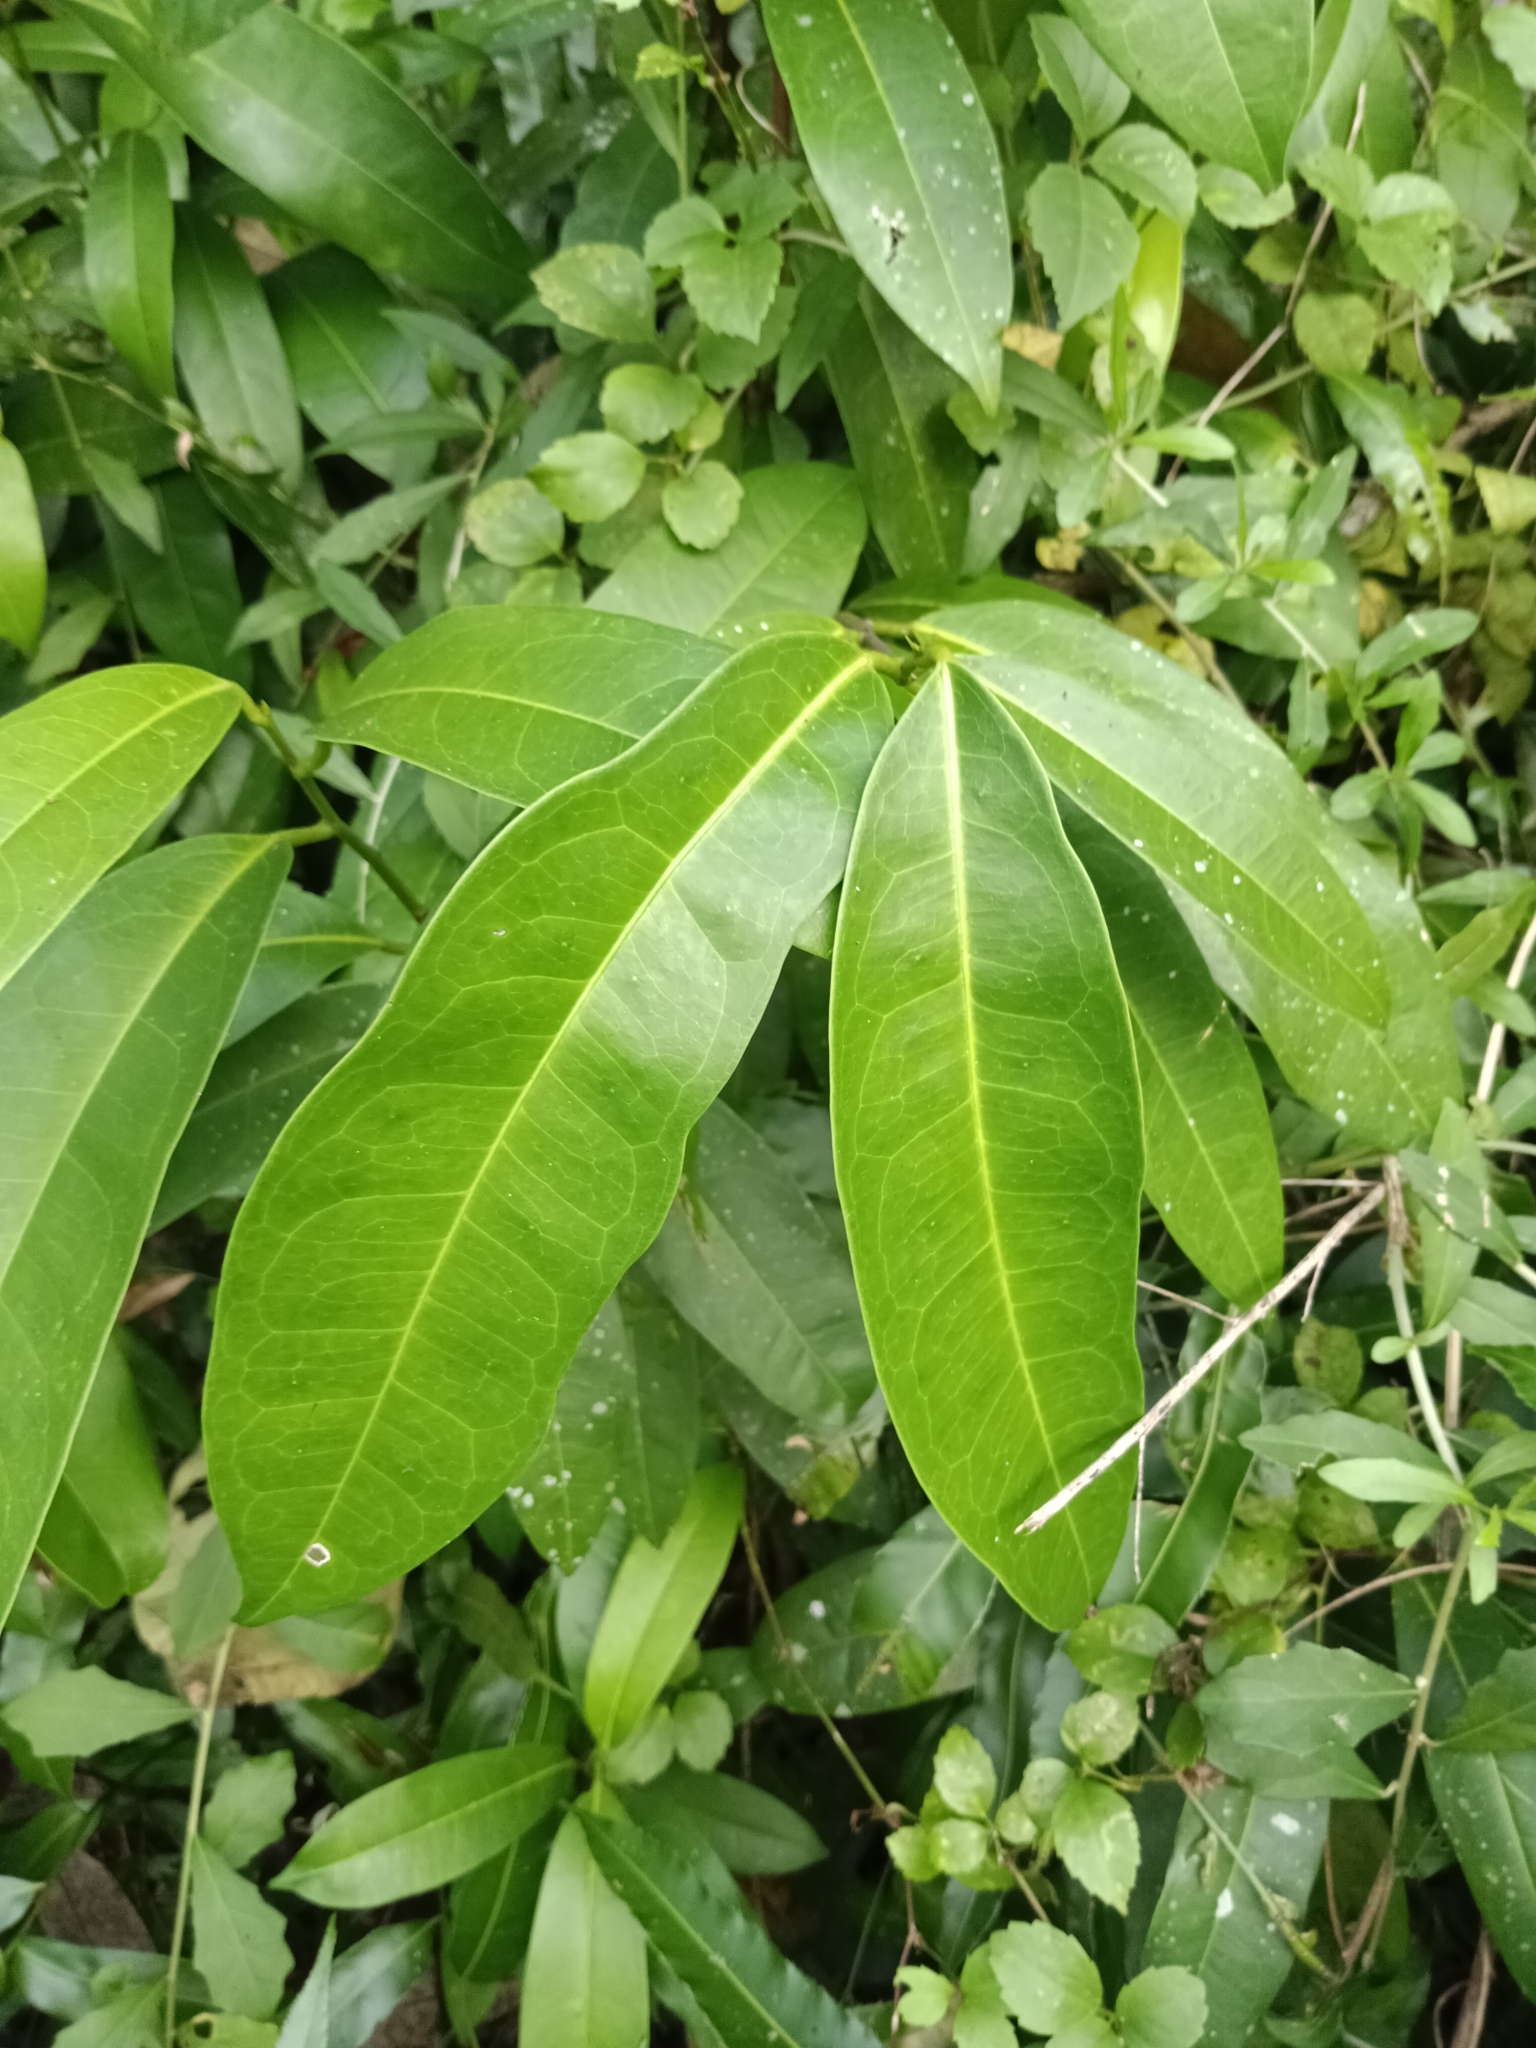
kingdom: Plantae
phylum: Tracheophyta
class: Magnoliopsida
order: Sapindales
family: Simaroubaceae
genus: Samadera
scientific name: Samadera indica
